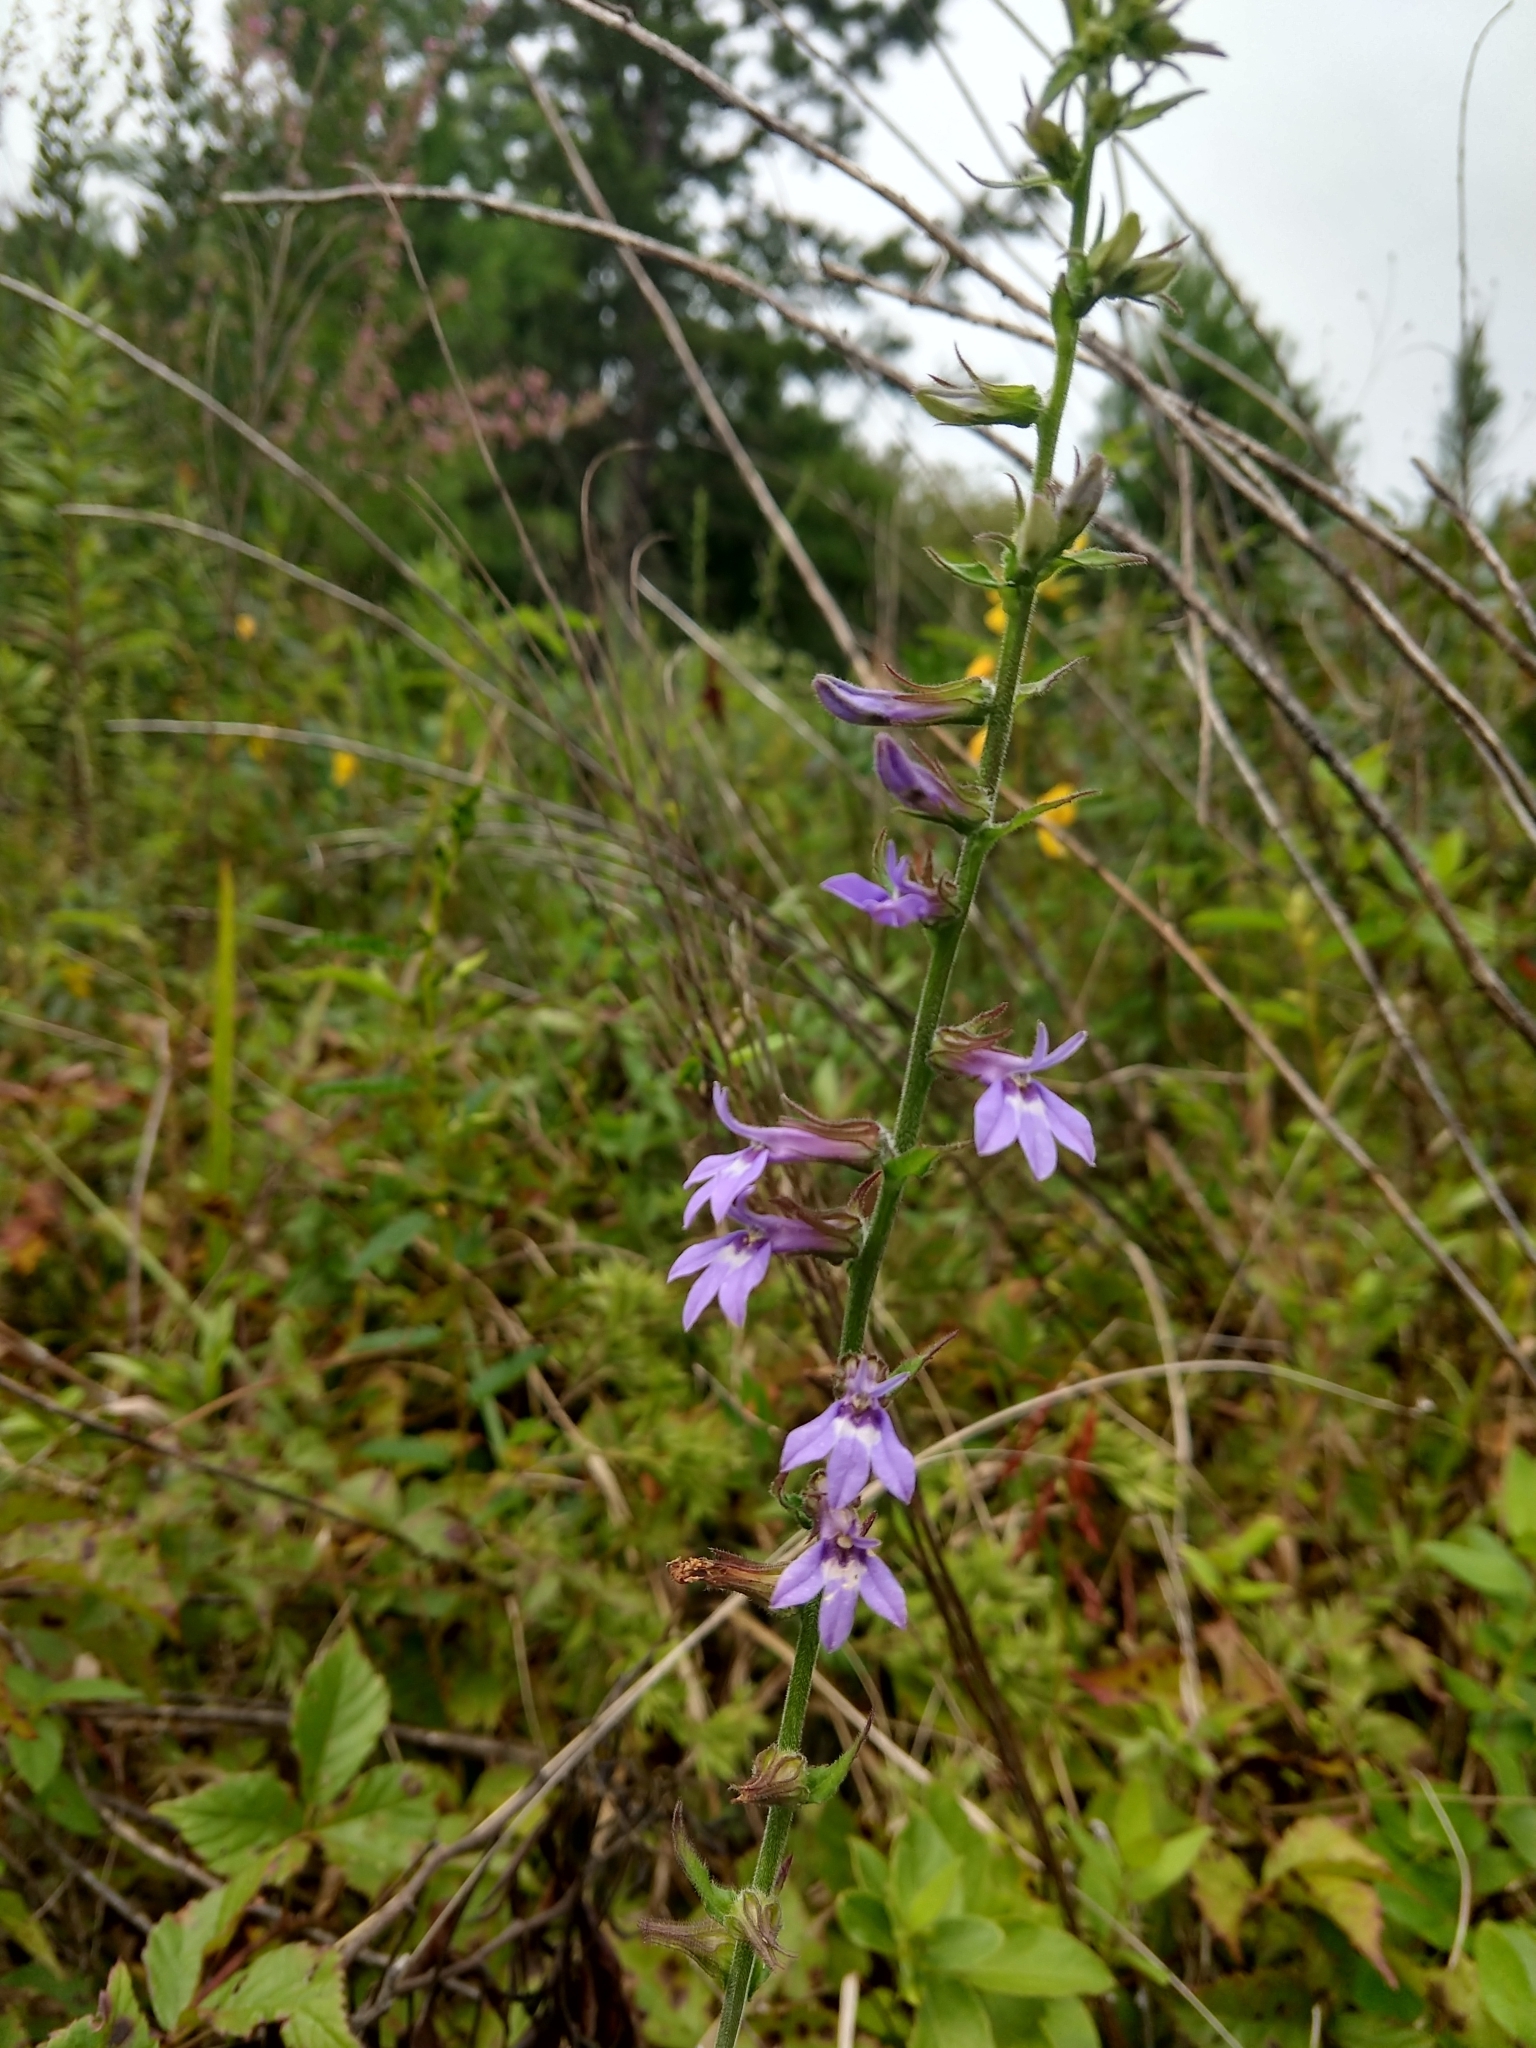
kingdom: Plantae
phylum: Tracheophyta
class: Magnoliopsida
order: Asterales
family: Campanulaceae
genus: Lobelia
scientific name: Lobelia puberula
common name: Purple dewdrop
